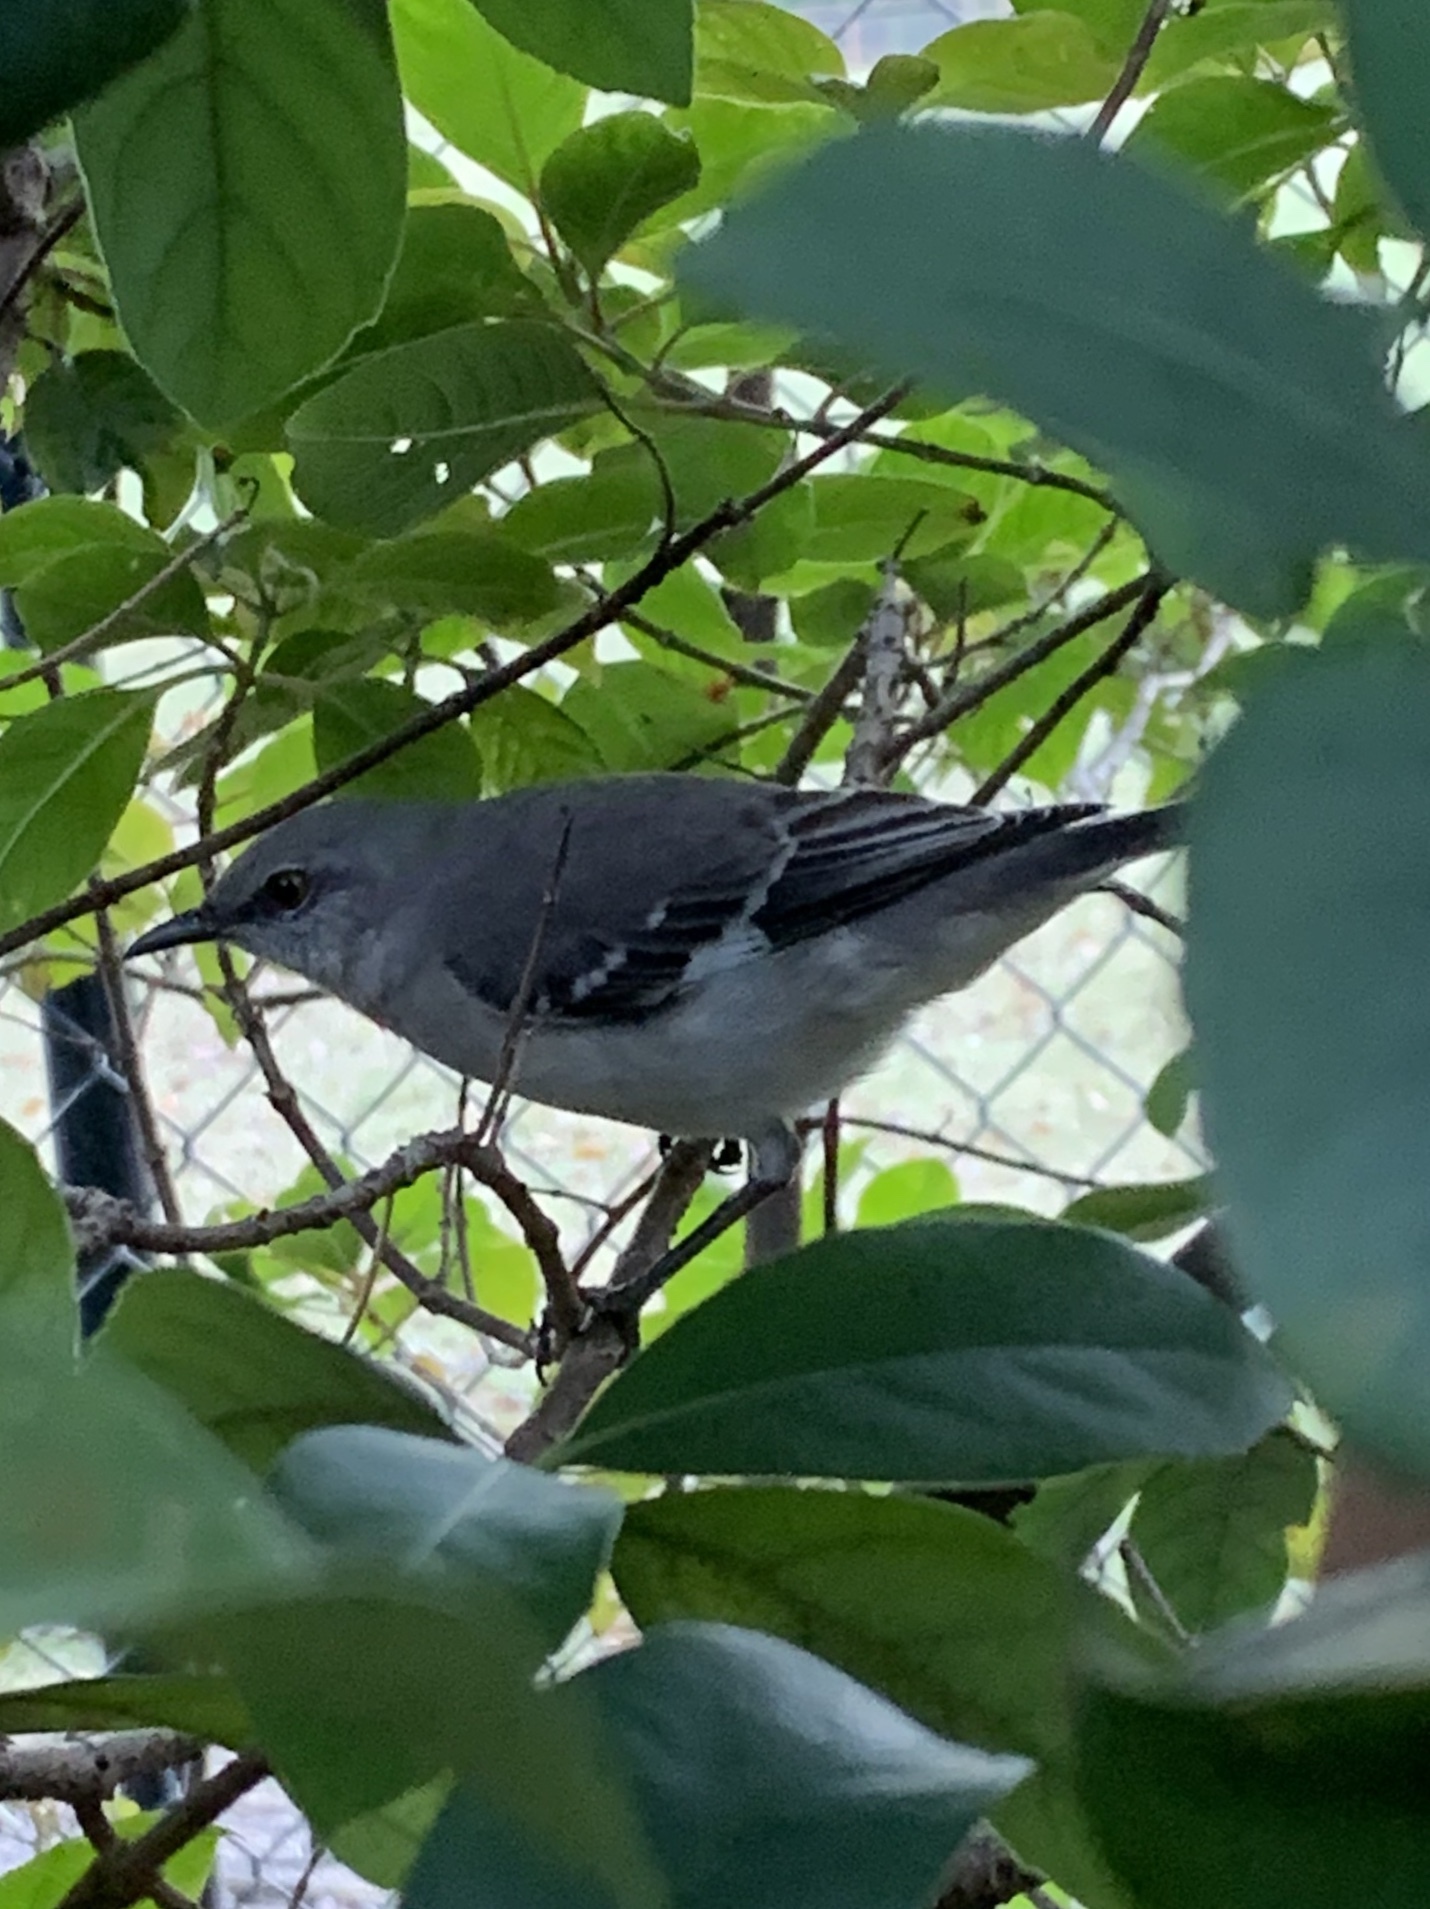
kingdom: Animalia
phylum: Chordata
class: Aves
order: Passeriformes
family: Mimidae
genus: Mimus
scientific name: Mimus polyglottos
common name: Northern mockingbird
